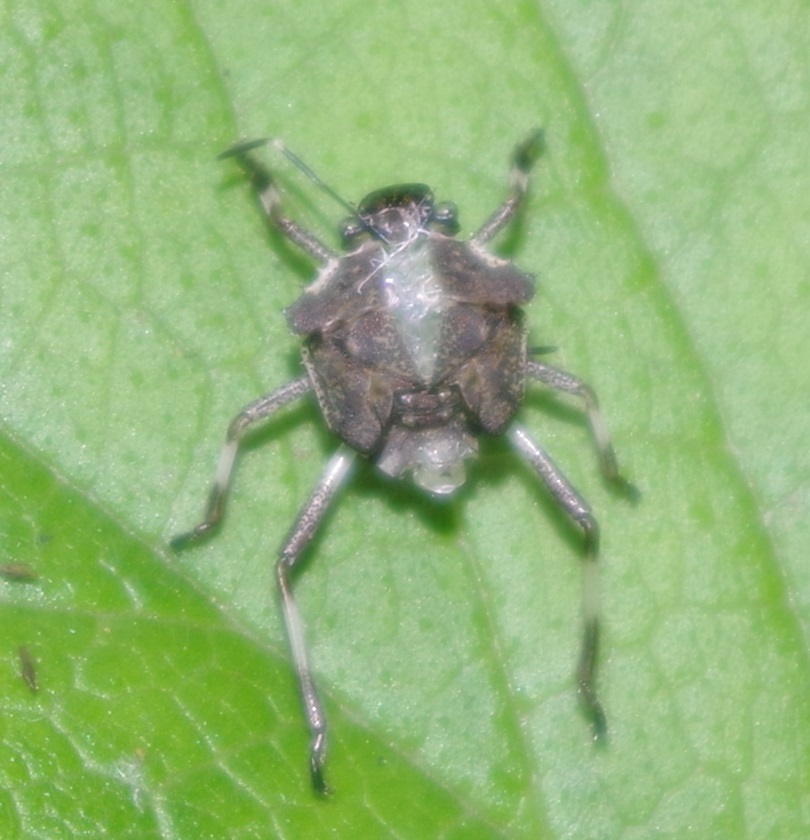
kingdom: Animalia
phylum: Arthropoda
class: Insecta
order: Hemiptera
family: Pentatomidae
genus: Halyomorpha
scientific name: Halyomorpha halys
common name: Brown marmorated stink bug
